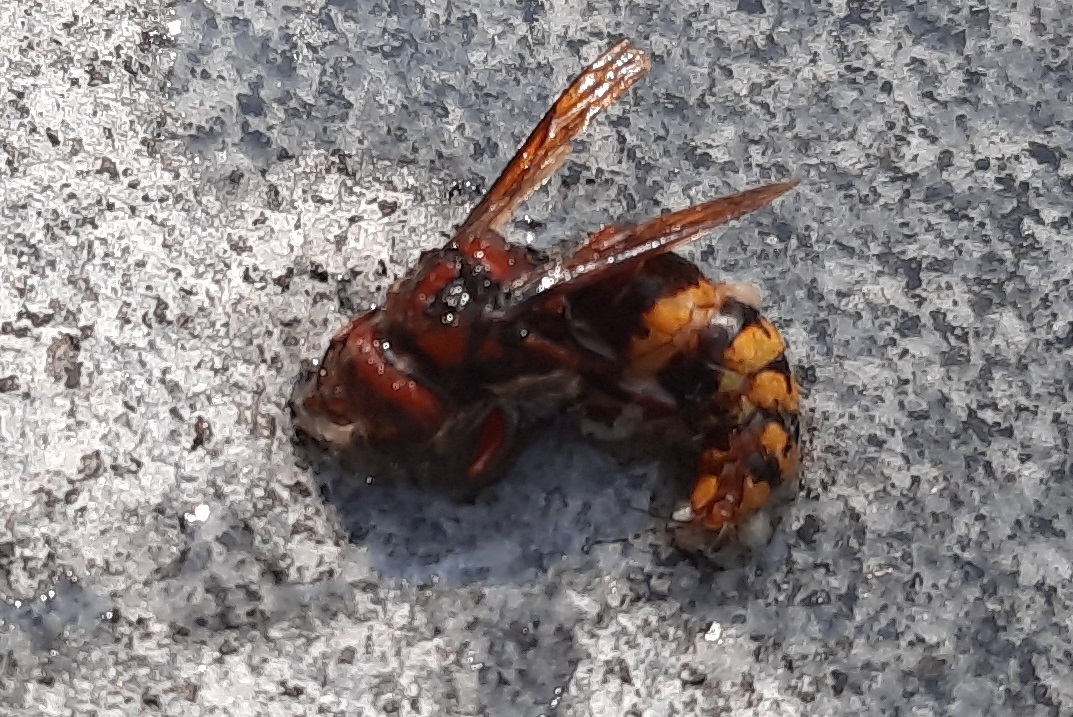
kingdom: Animalia
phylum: Arthropoda
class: Insecta
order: Hymenoptera
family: Vespidae
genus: Vespa
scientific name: Vespa crabro
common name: Hornet
